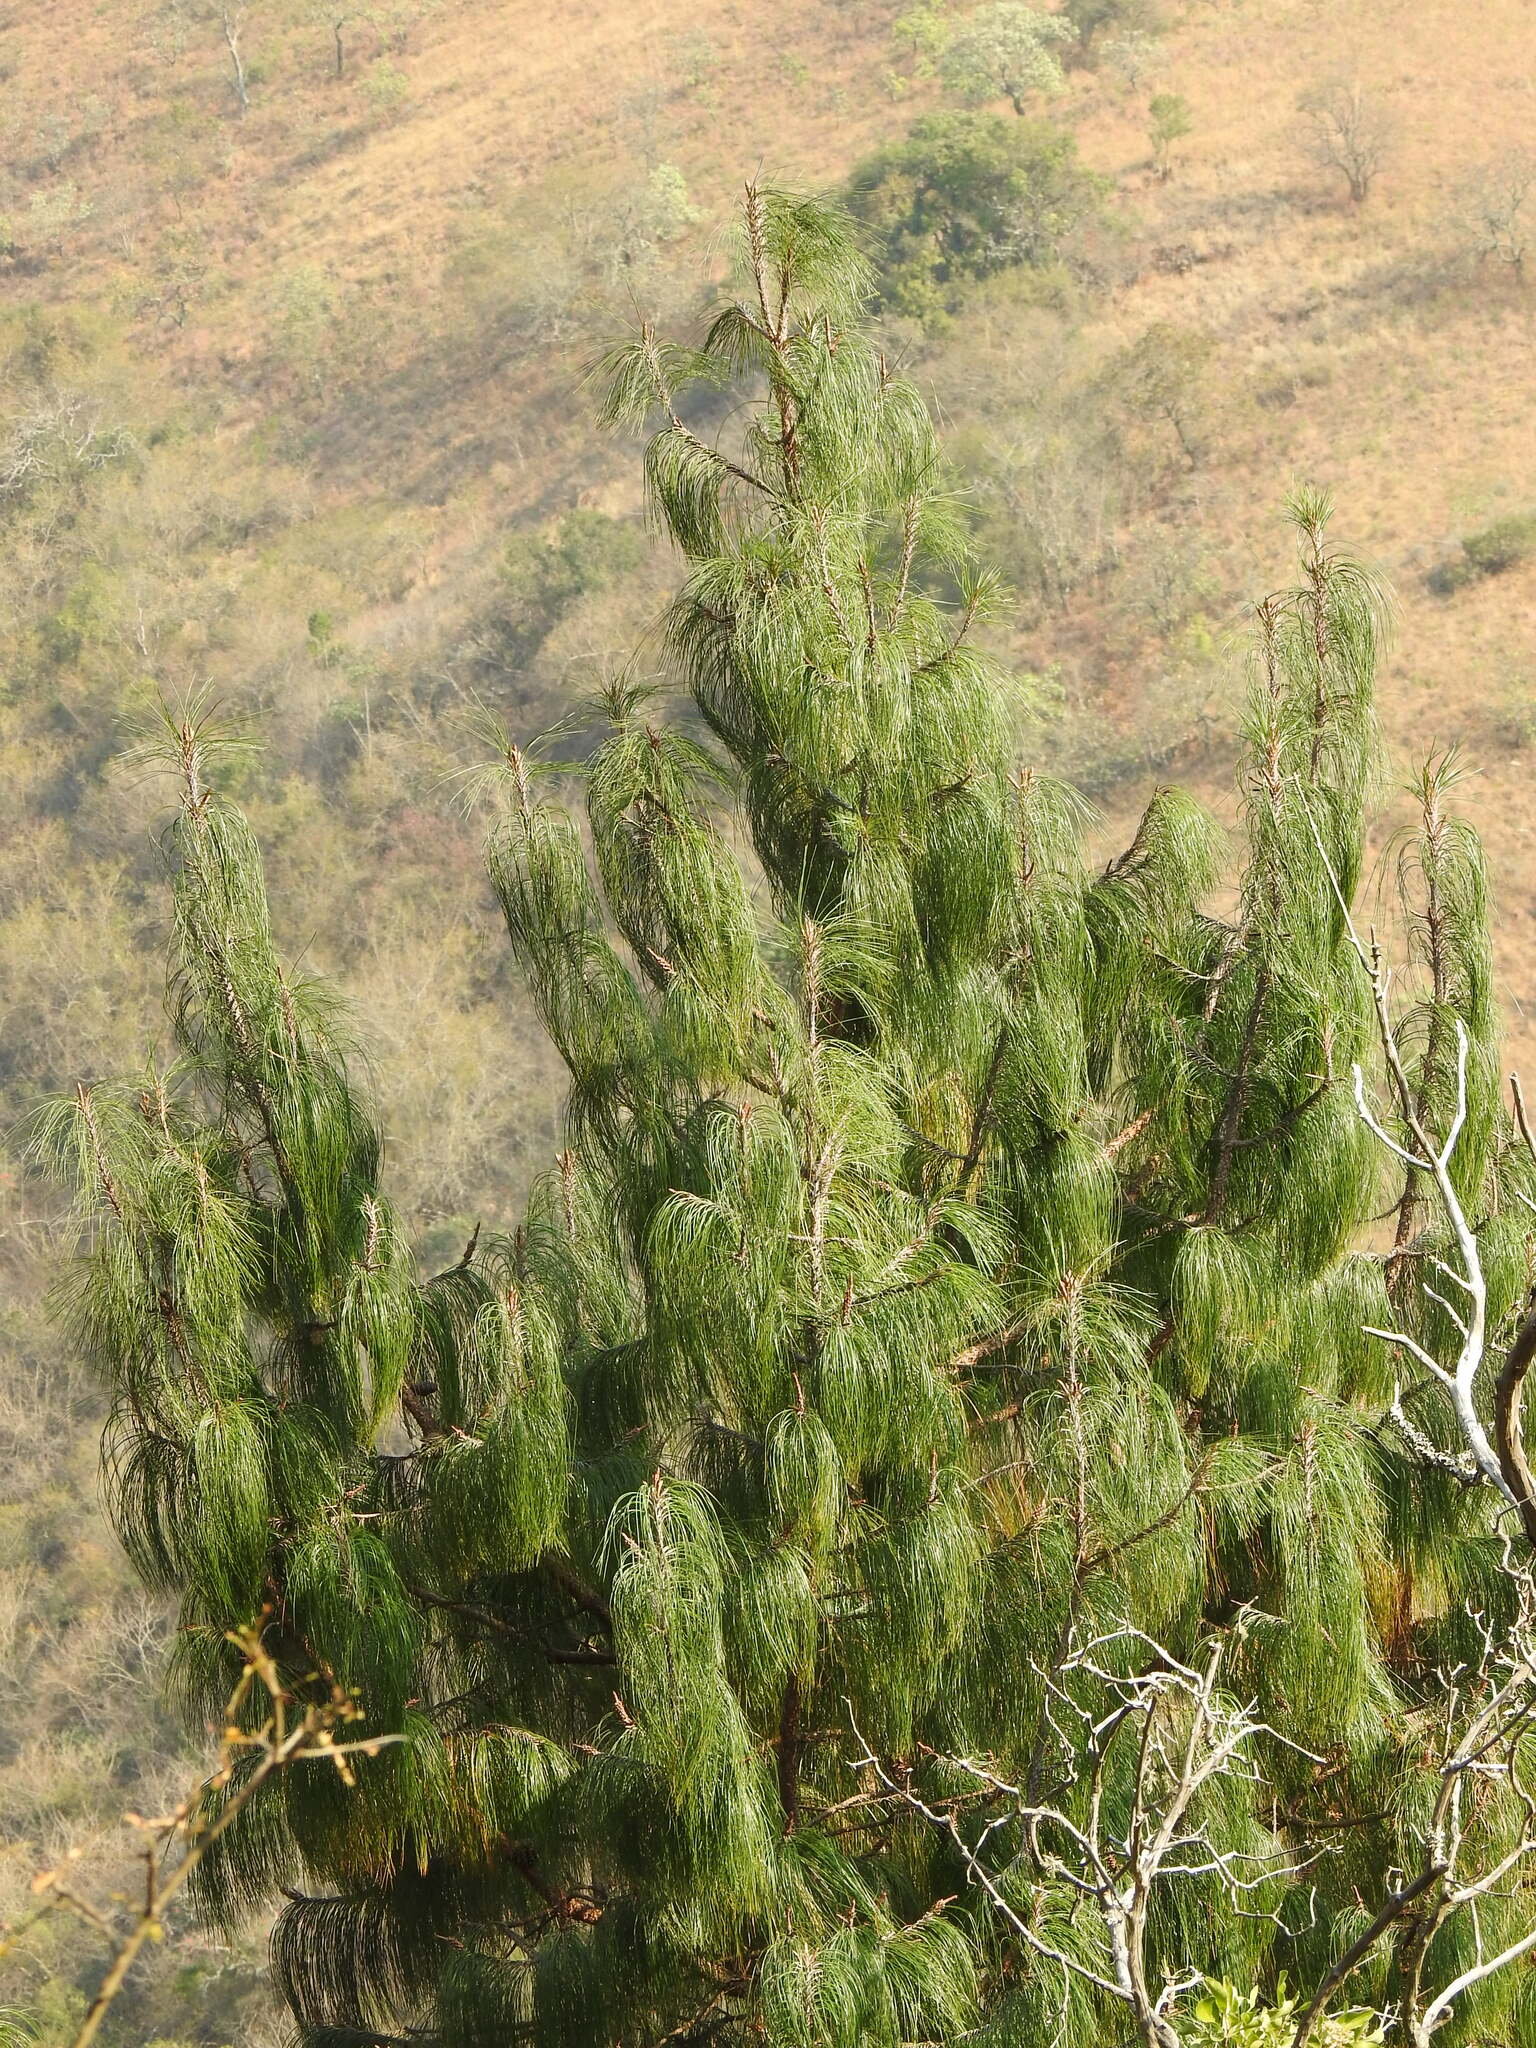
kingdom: Plantae
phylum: Tracheophyta
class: Pinopsida
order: Pinales
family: Pinaceae
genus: Pinus
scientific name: Pinus patula
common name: Mexican weeping pine
